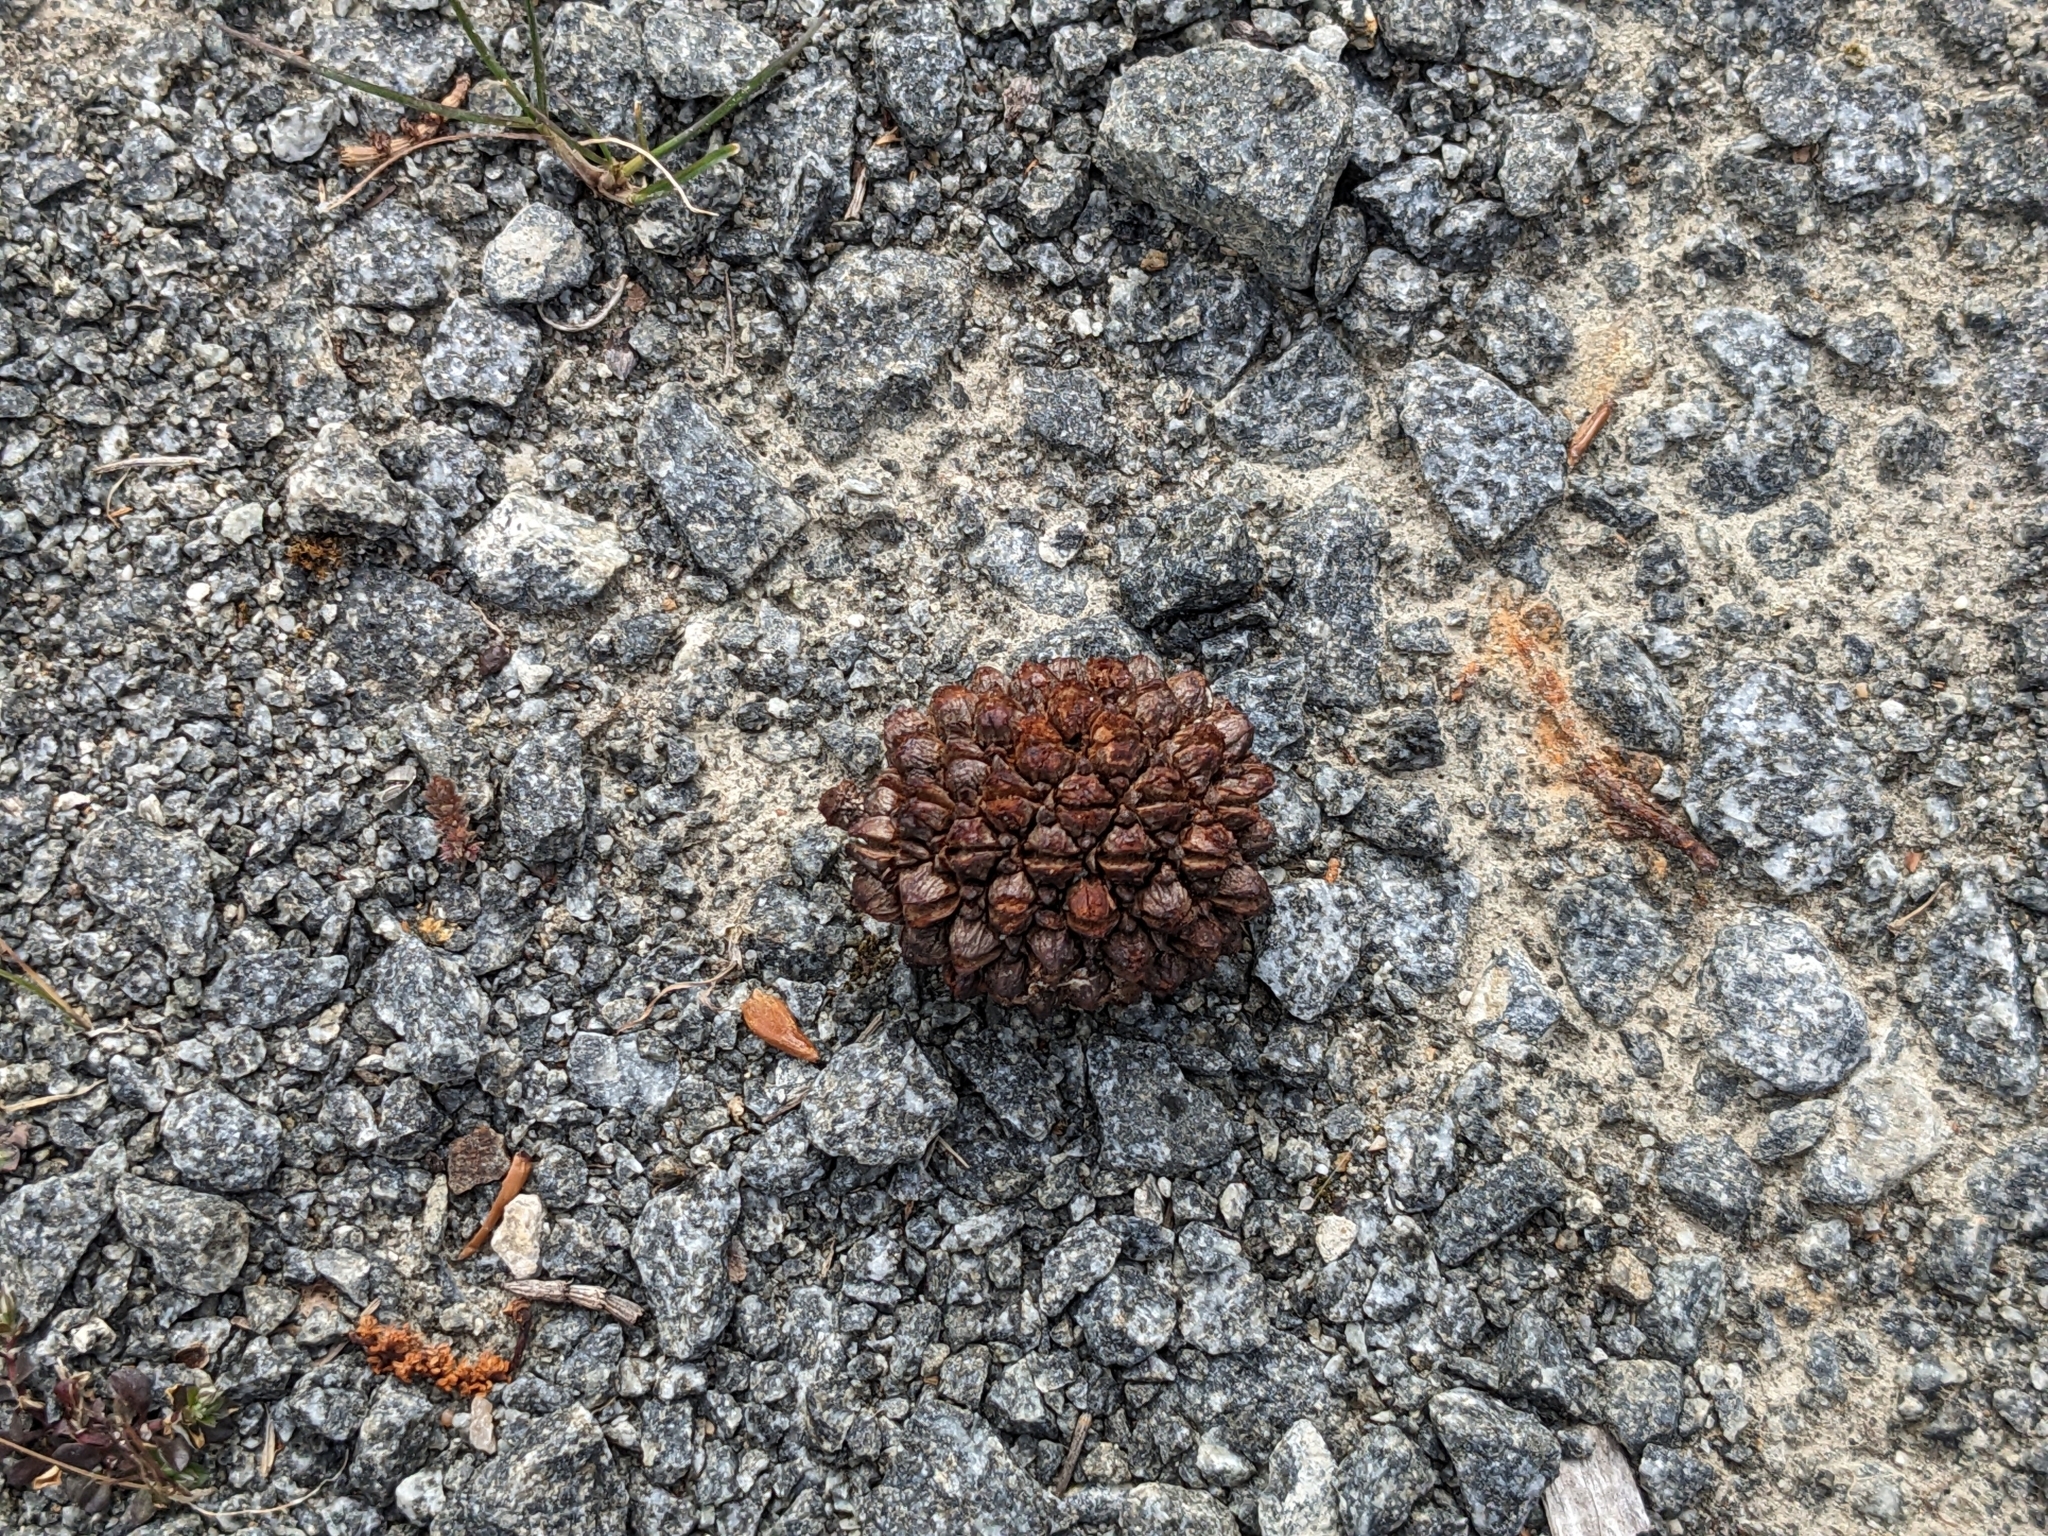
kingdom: Plantae
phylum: Tracheophyta
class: Magnoliopsida
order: Fagales
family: Casuarinaceae
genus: Allocasuarina
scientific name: Allocasuarina verticillata
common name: Drooping she-oak
